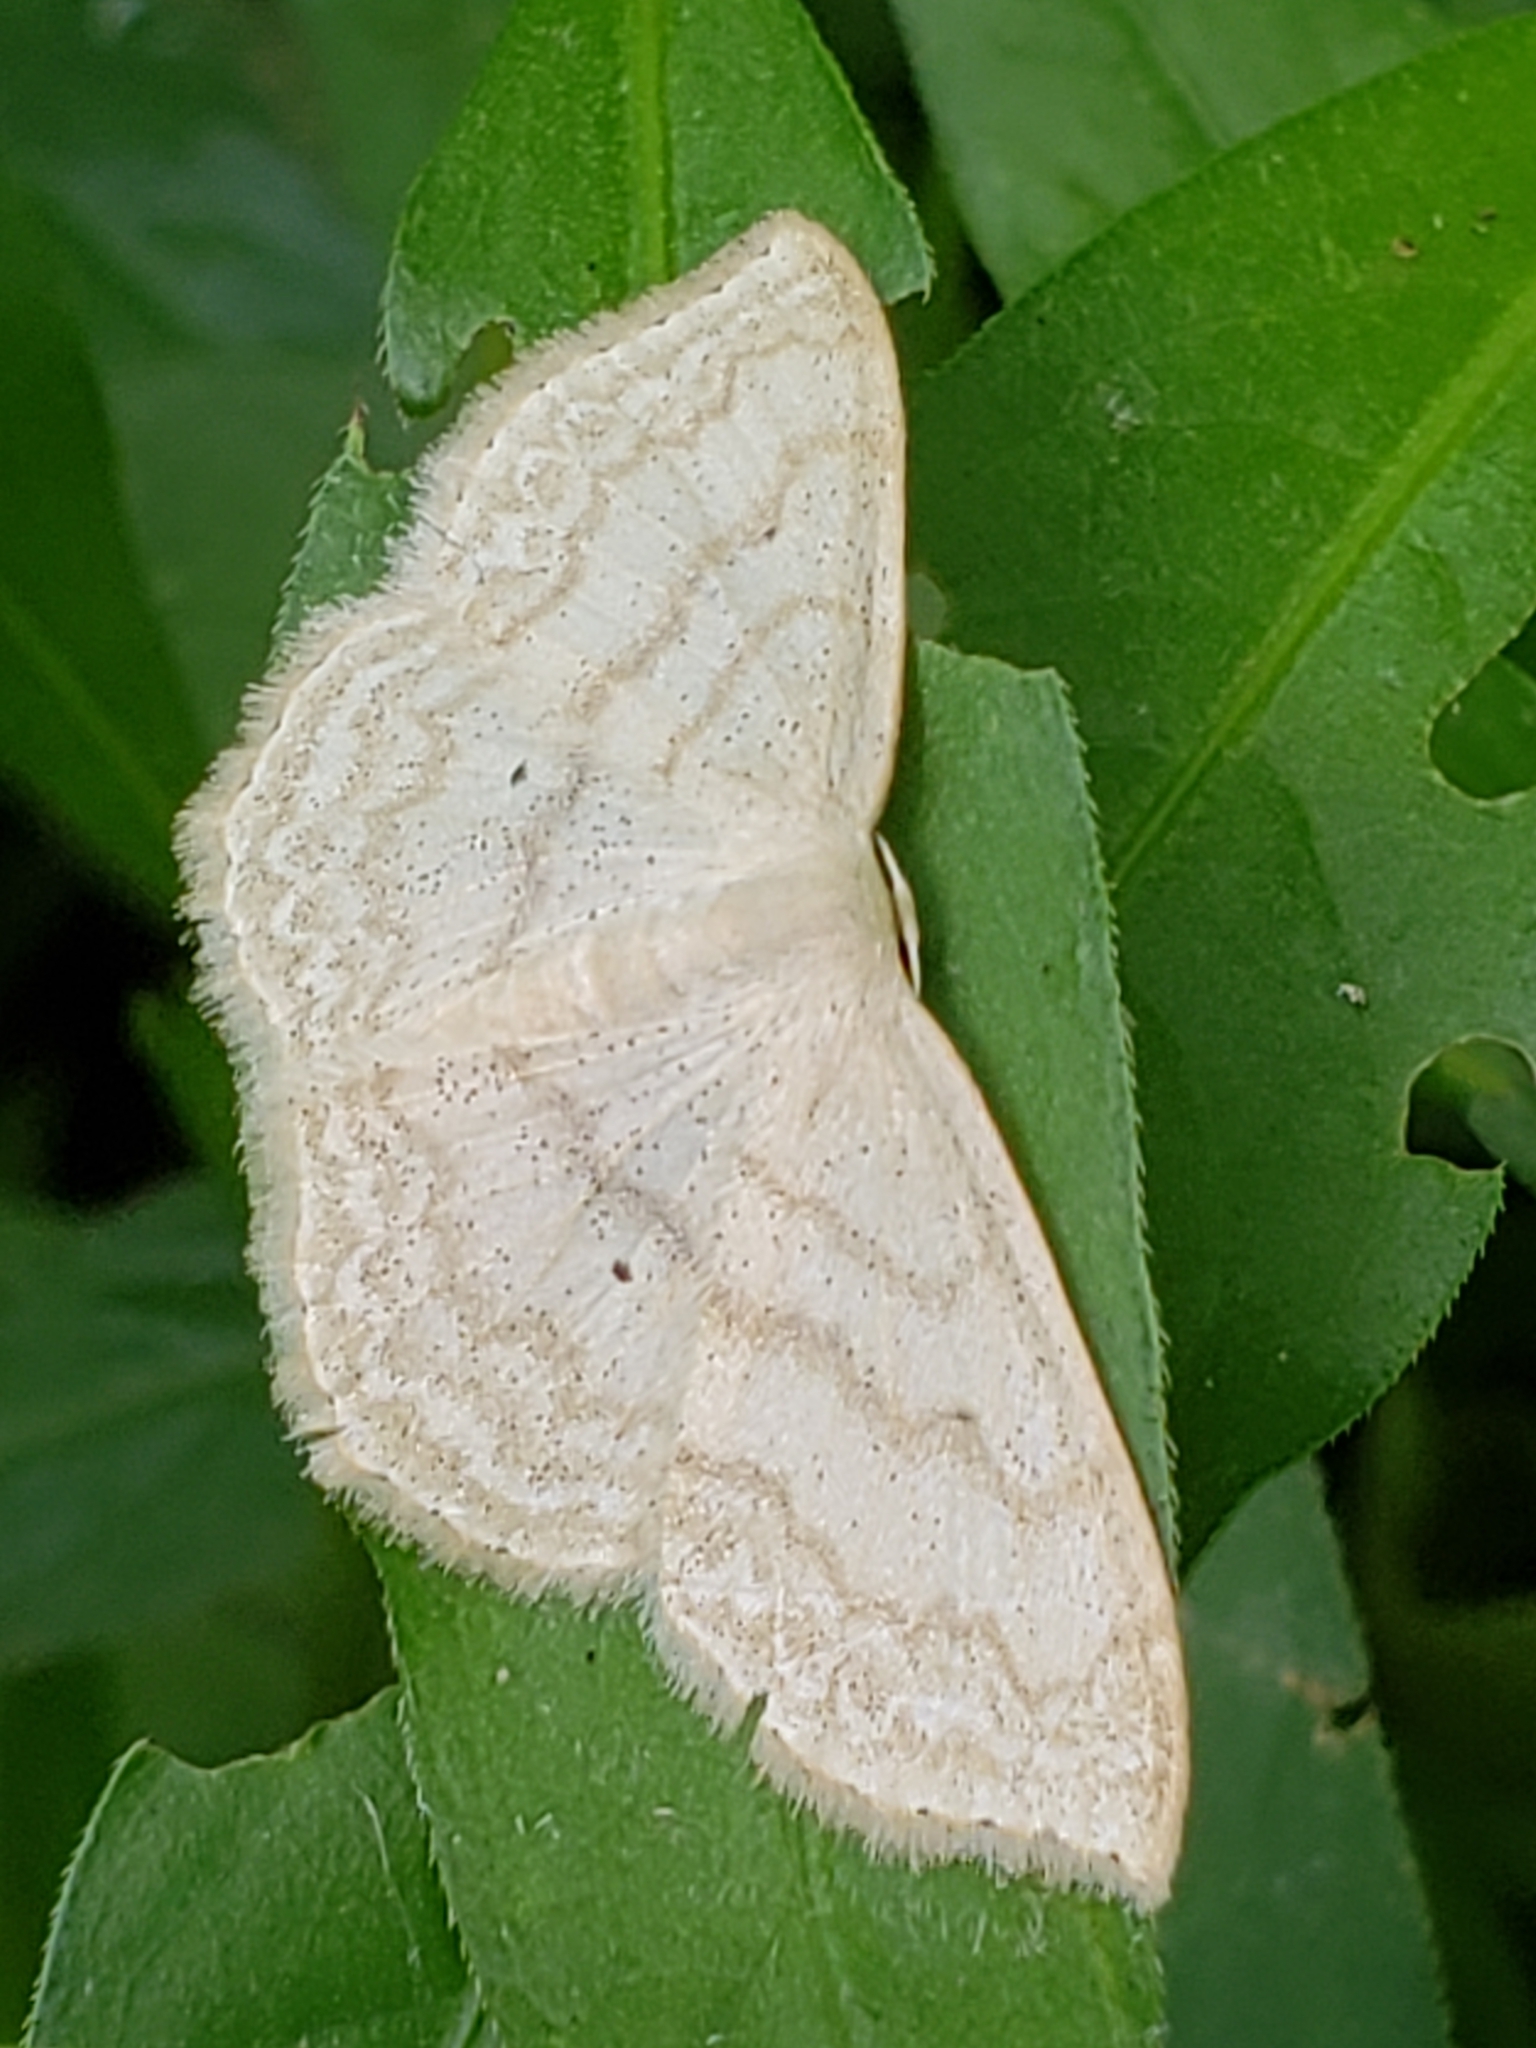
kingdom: Animalia
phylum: Arthropoda
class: Insecta
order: Lepidoptera
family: Geometridae
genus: Scopula
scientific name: Scopula limboundata
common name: Large lace border
